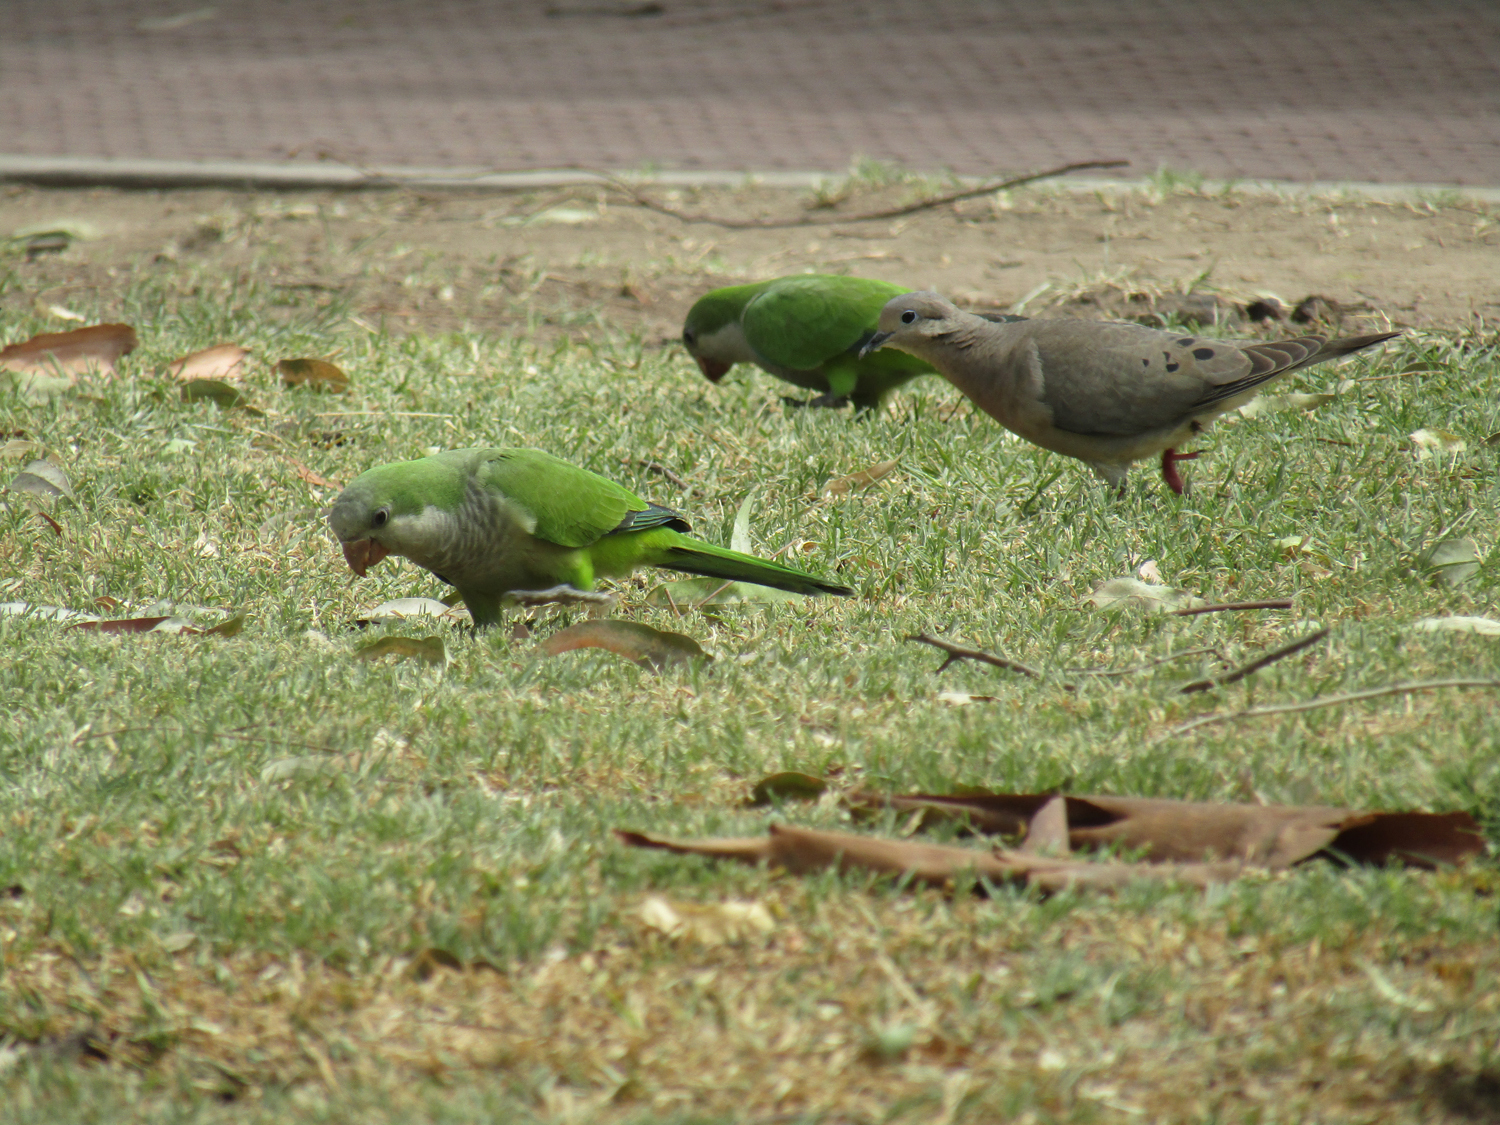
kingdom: Animalia
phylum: Chordata
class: Aves
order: Psittaciformes
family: Psittacidae
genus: Myiopsitta
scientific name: Myiopsitta monachus
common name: Monk parakeet
